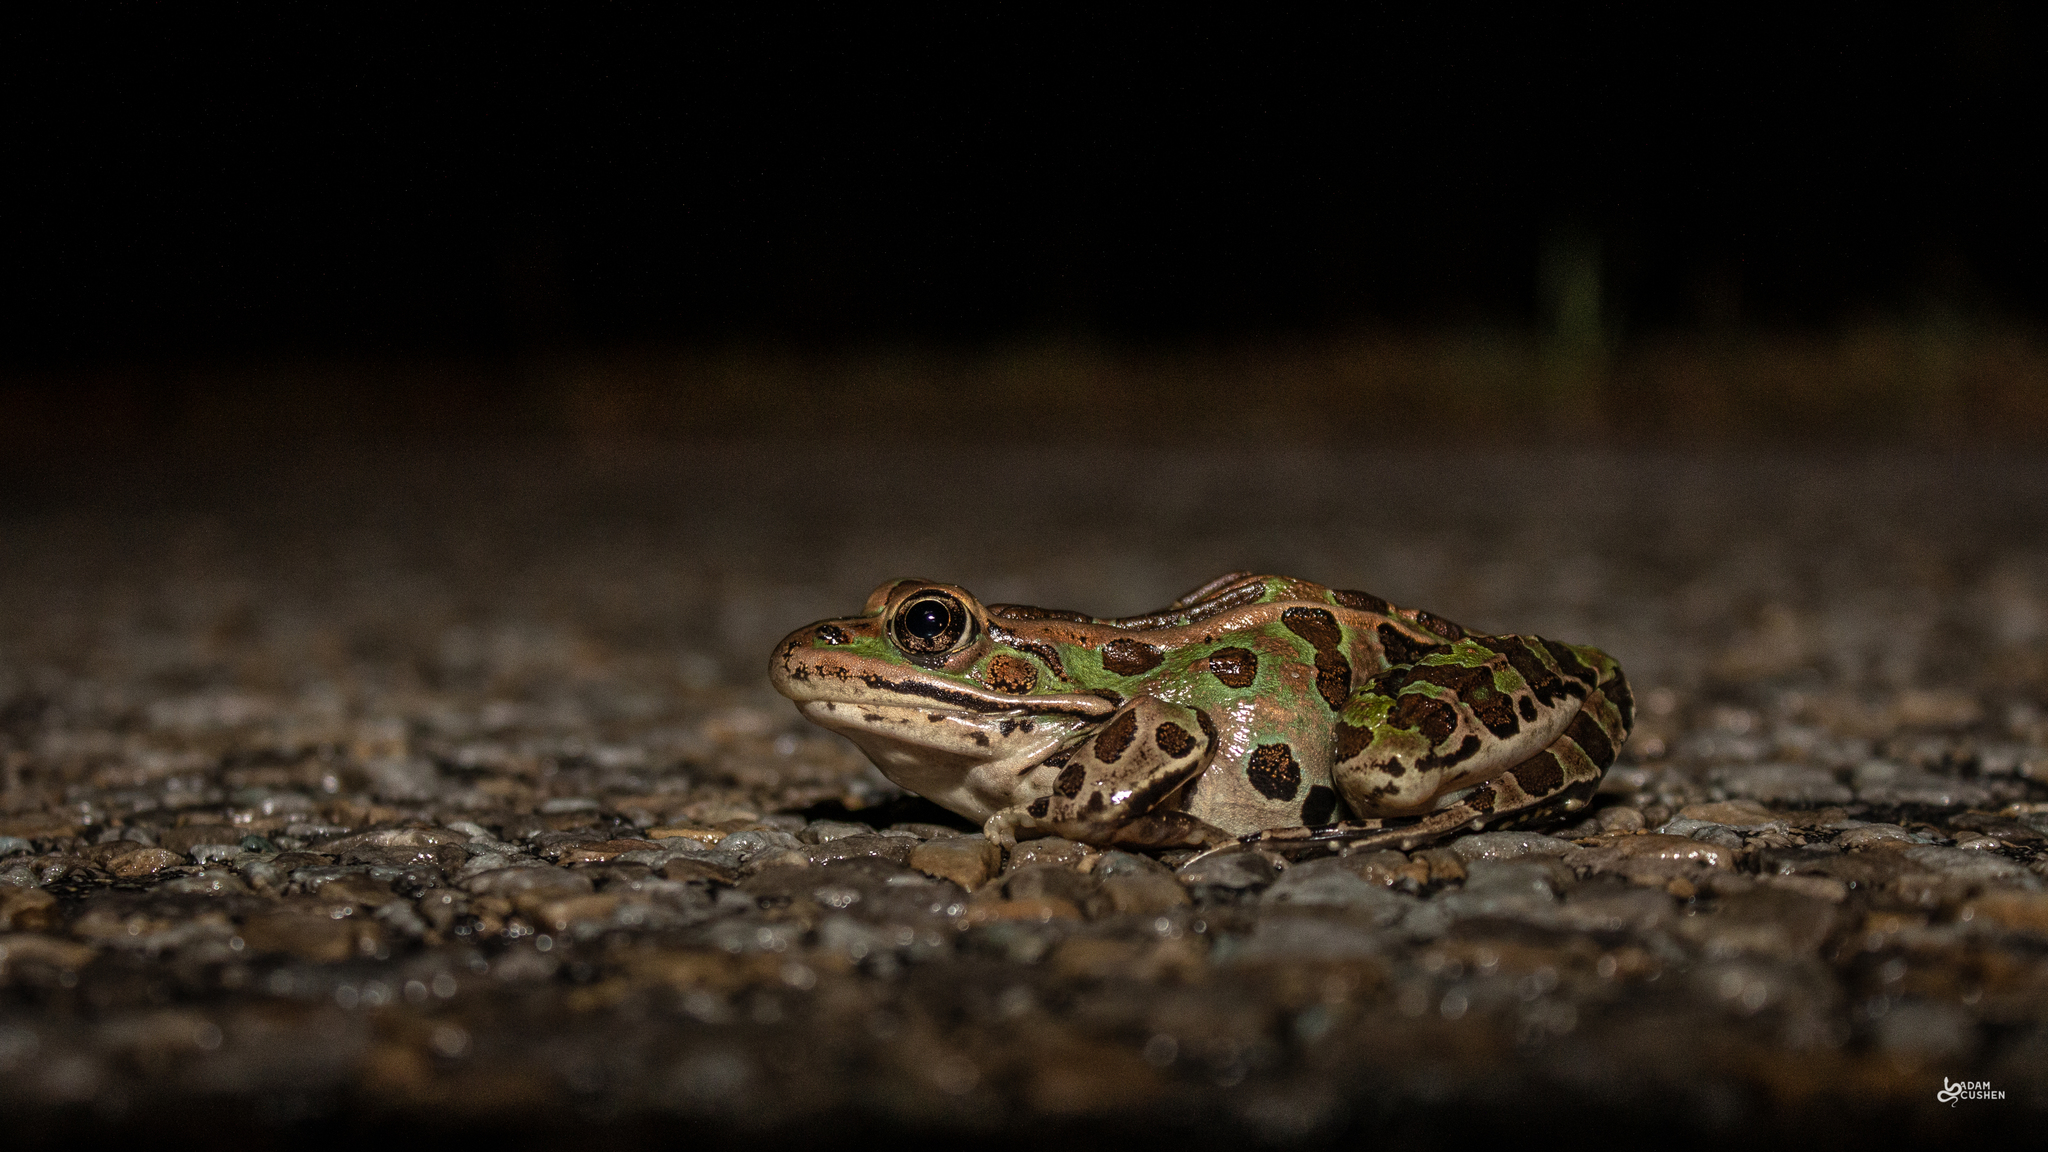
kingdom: Animalia
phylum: Chordata
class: Amphibia
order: Anura
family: Ranidae
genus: Lithobates
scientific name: Lithobates pipiens
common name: Northern leopard frog
